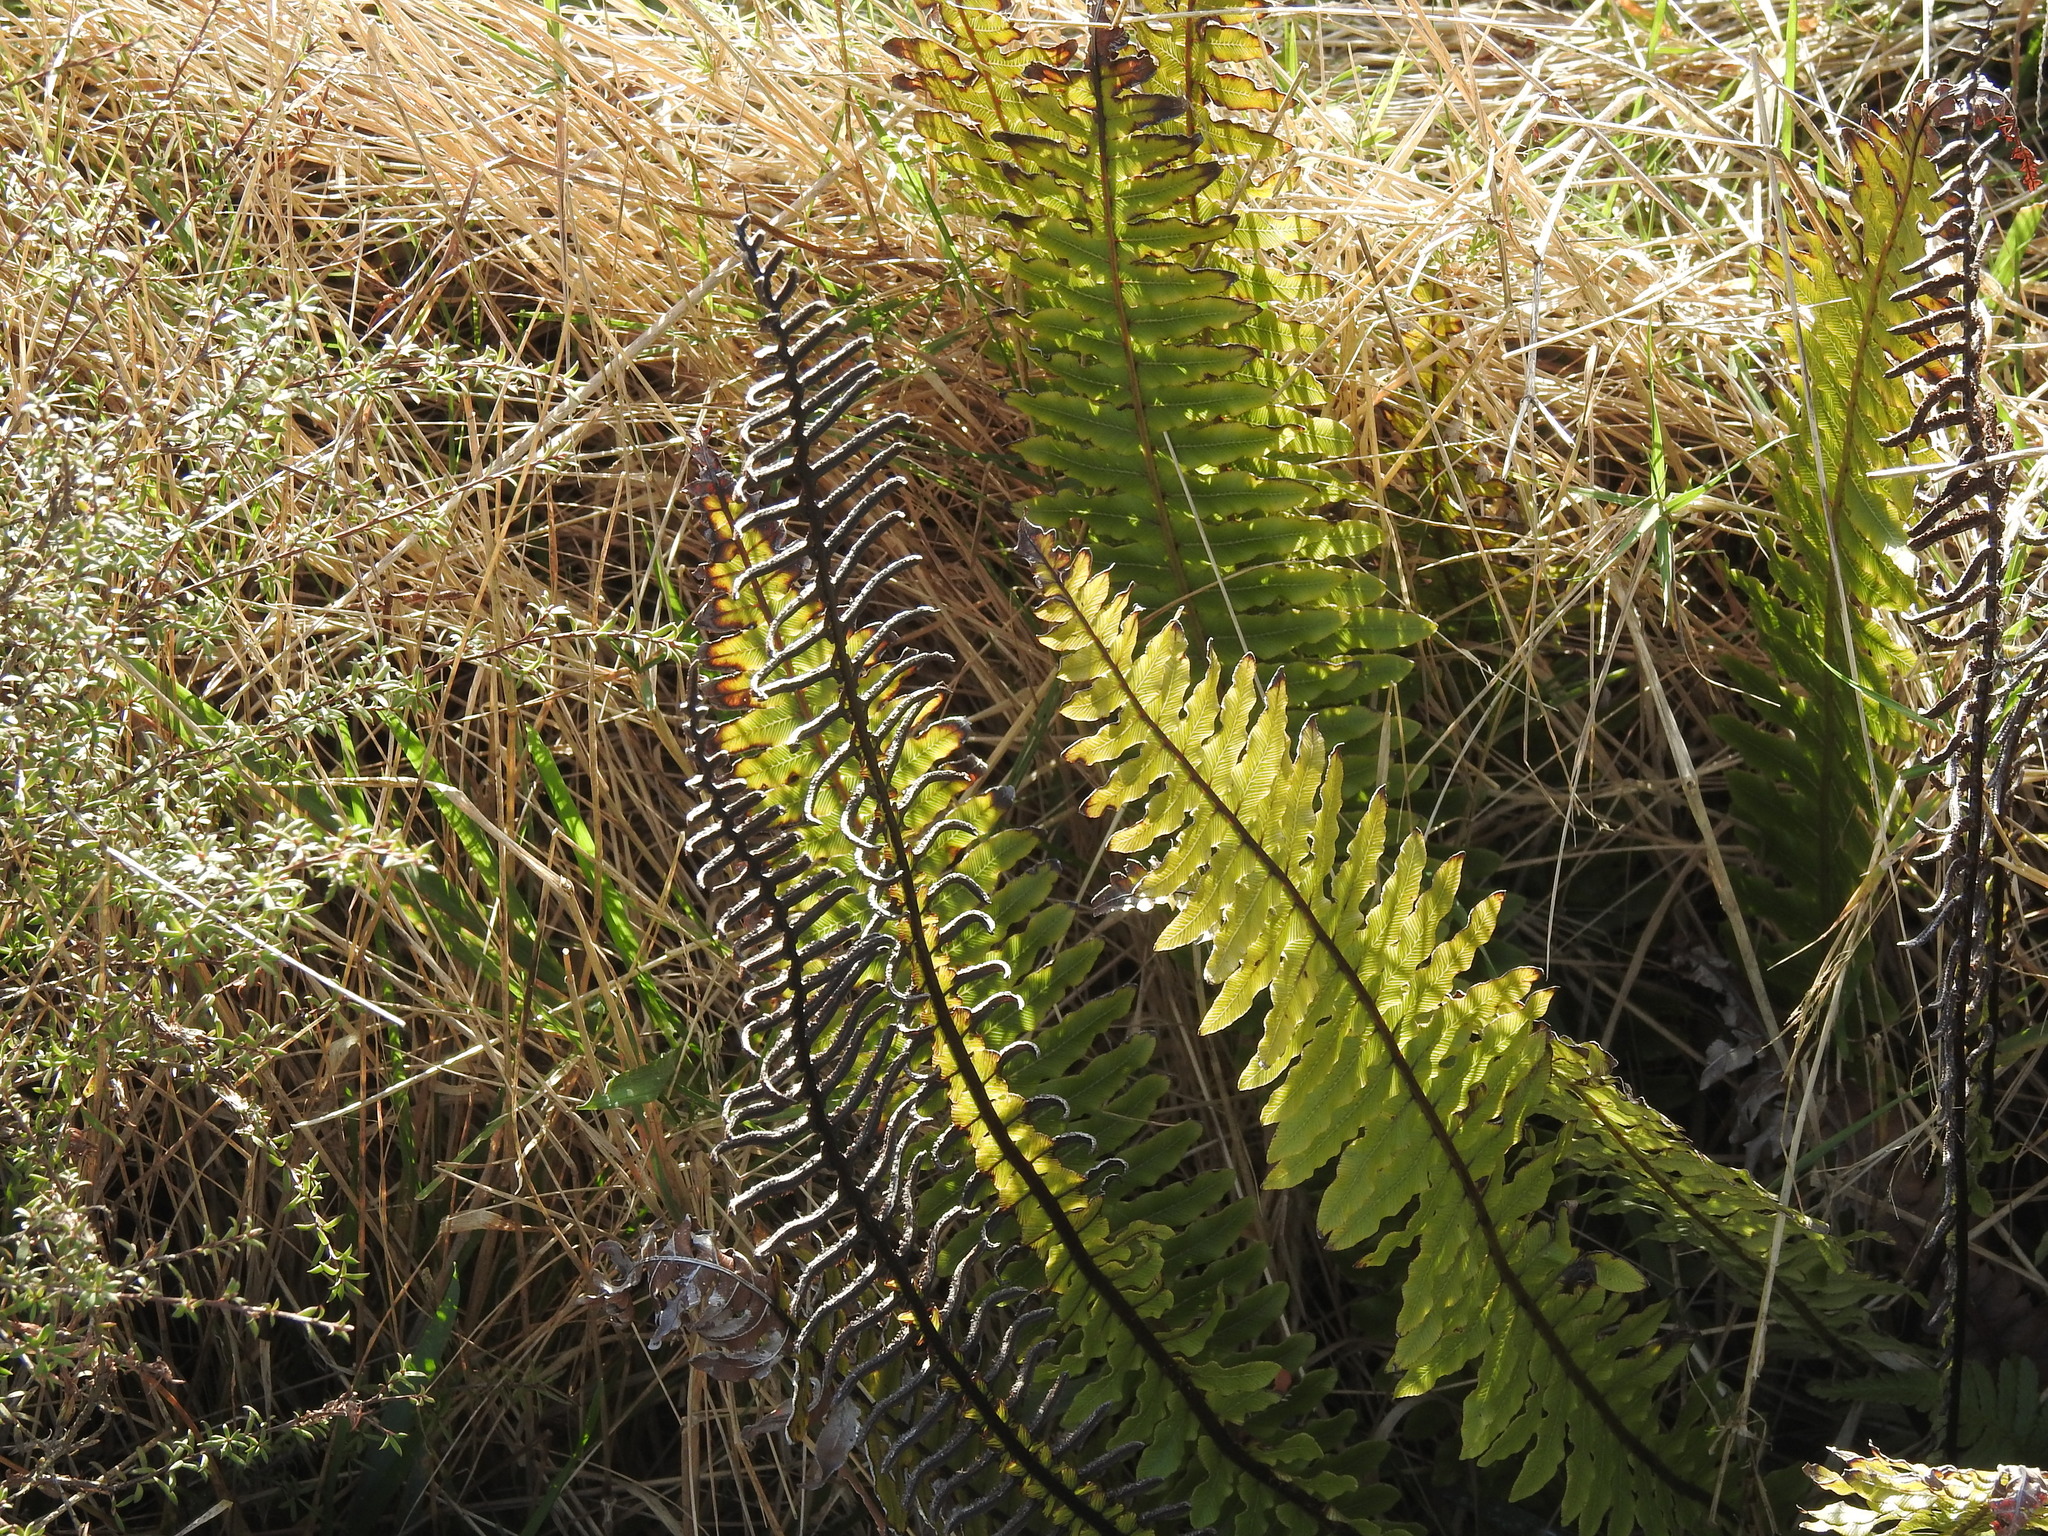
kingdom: Plantae
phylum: Tracheophyta
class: Polypodiopsida
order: Polypodiales
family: Blechnaceae
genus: Lomaria
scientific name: Lomaria discolor
